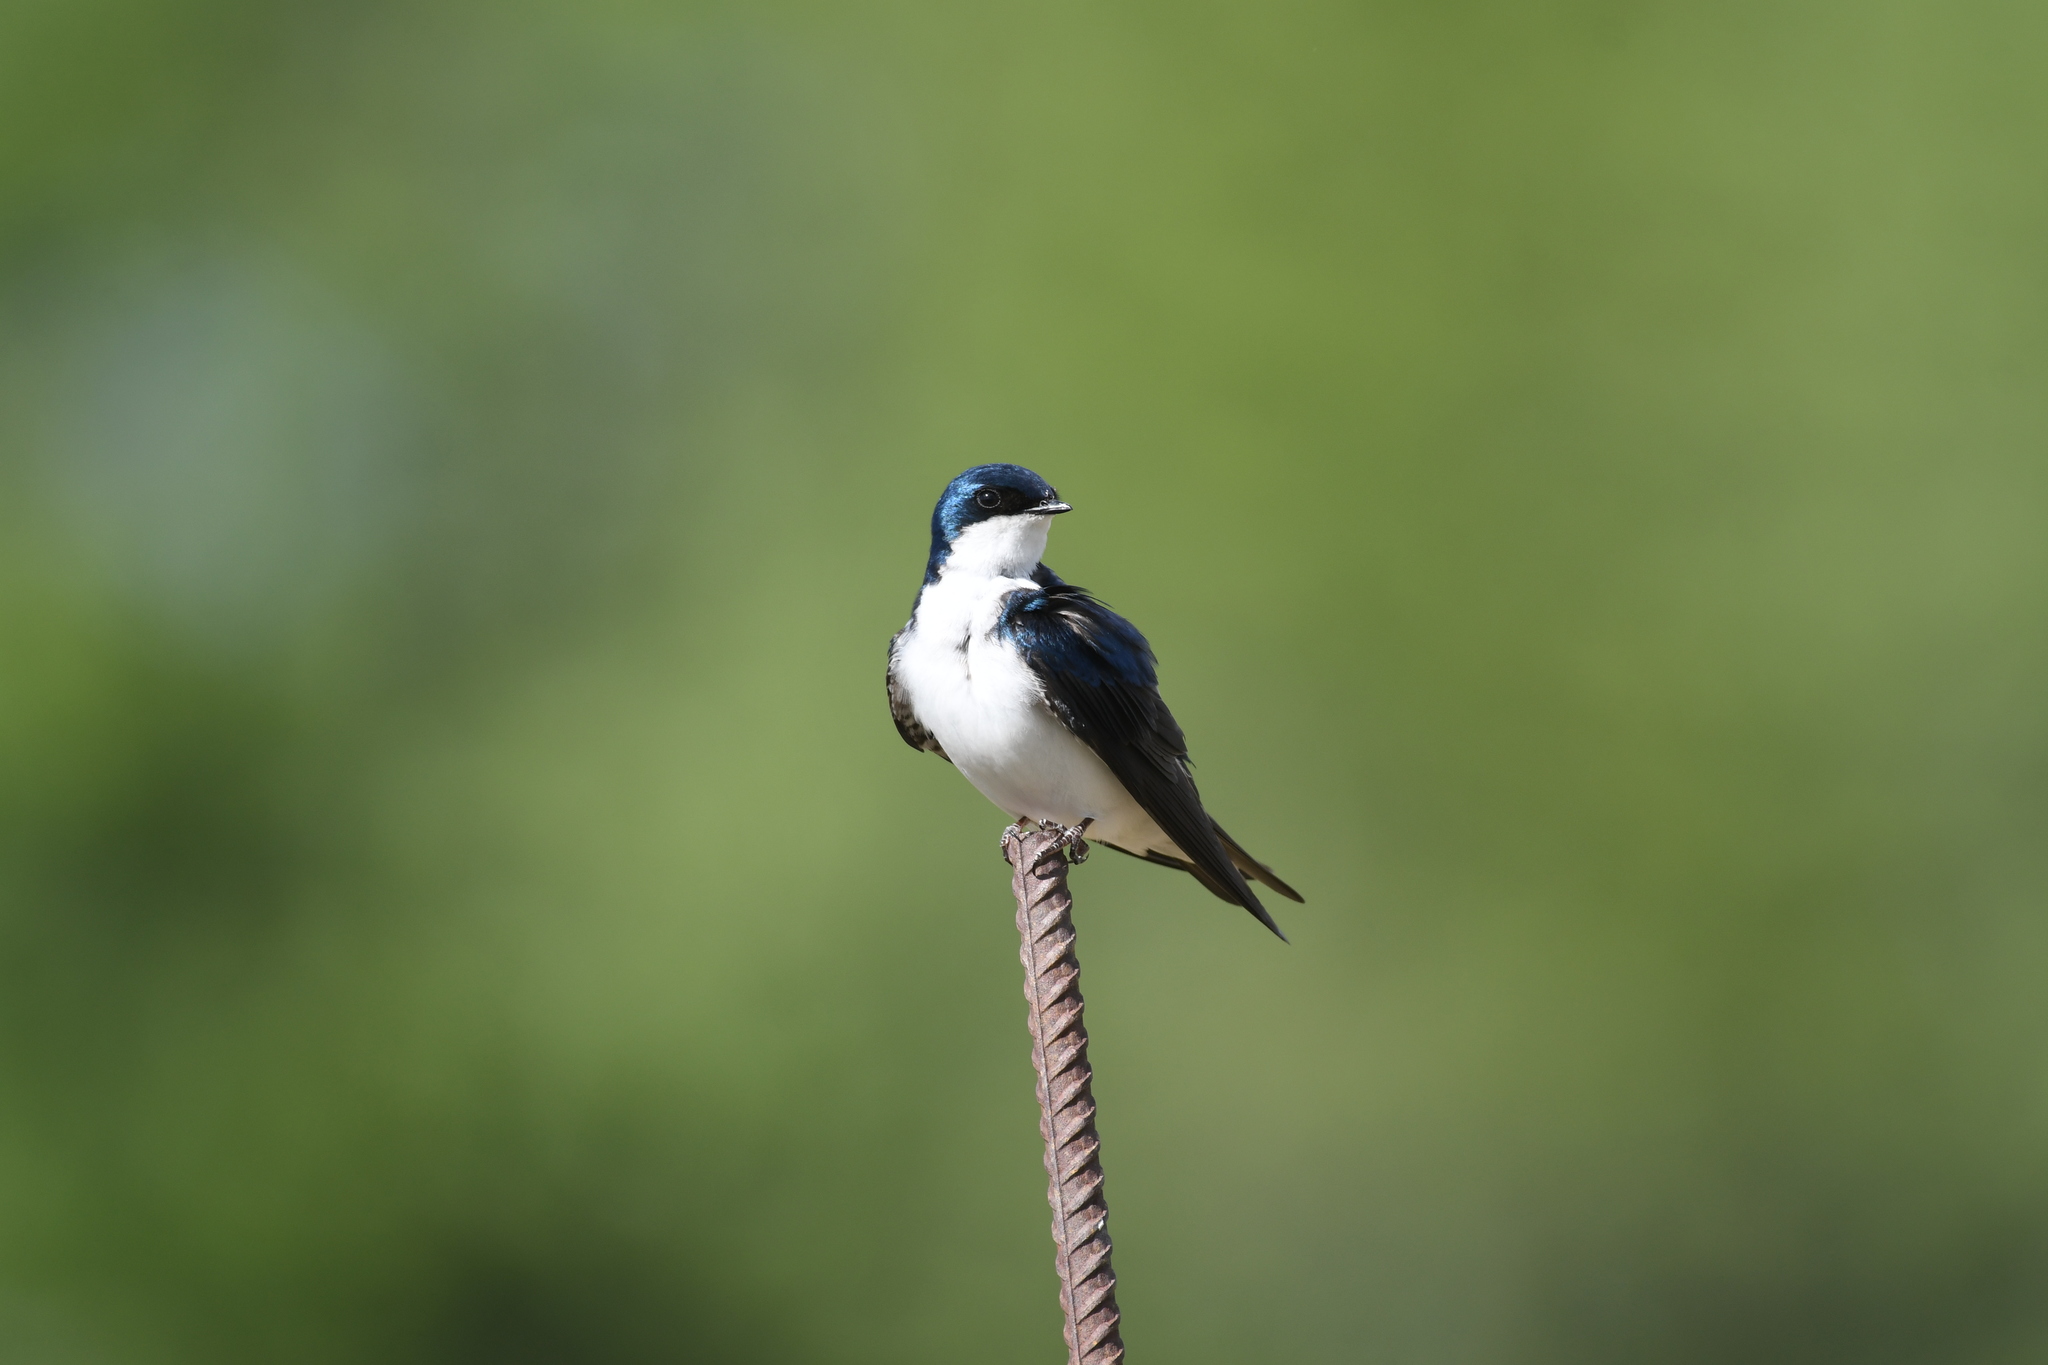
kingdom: Animalia
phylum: Chordata
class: Aves
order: Passeriformes
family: Hirundinidae
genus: Tachycineta
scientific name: Tachycineta bicolor
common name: Tree swallow
